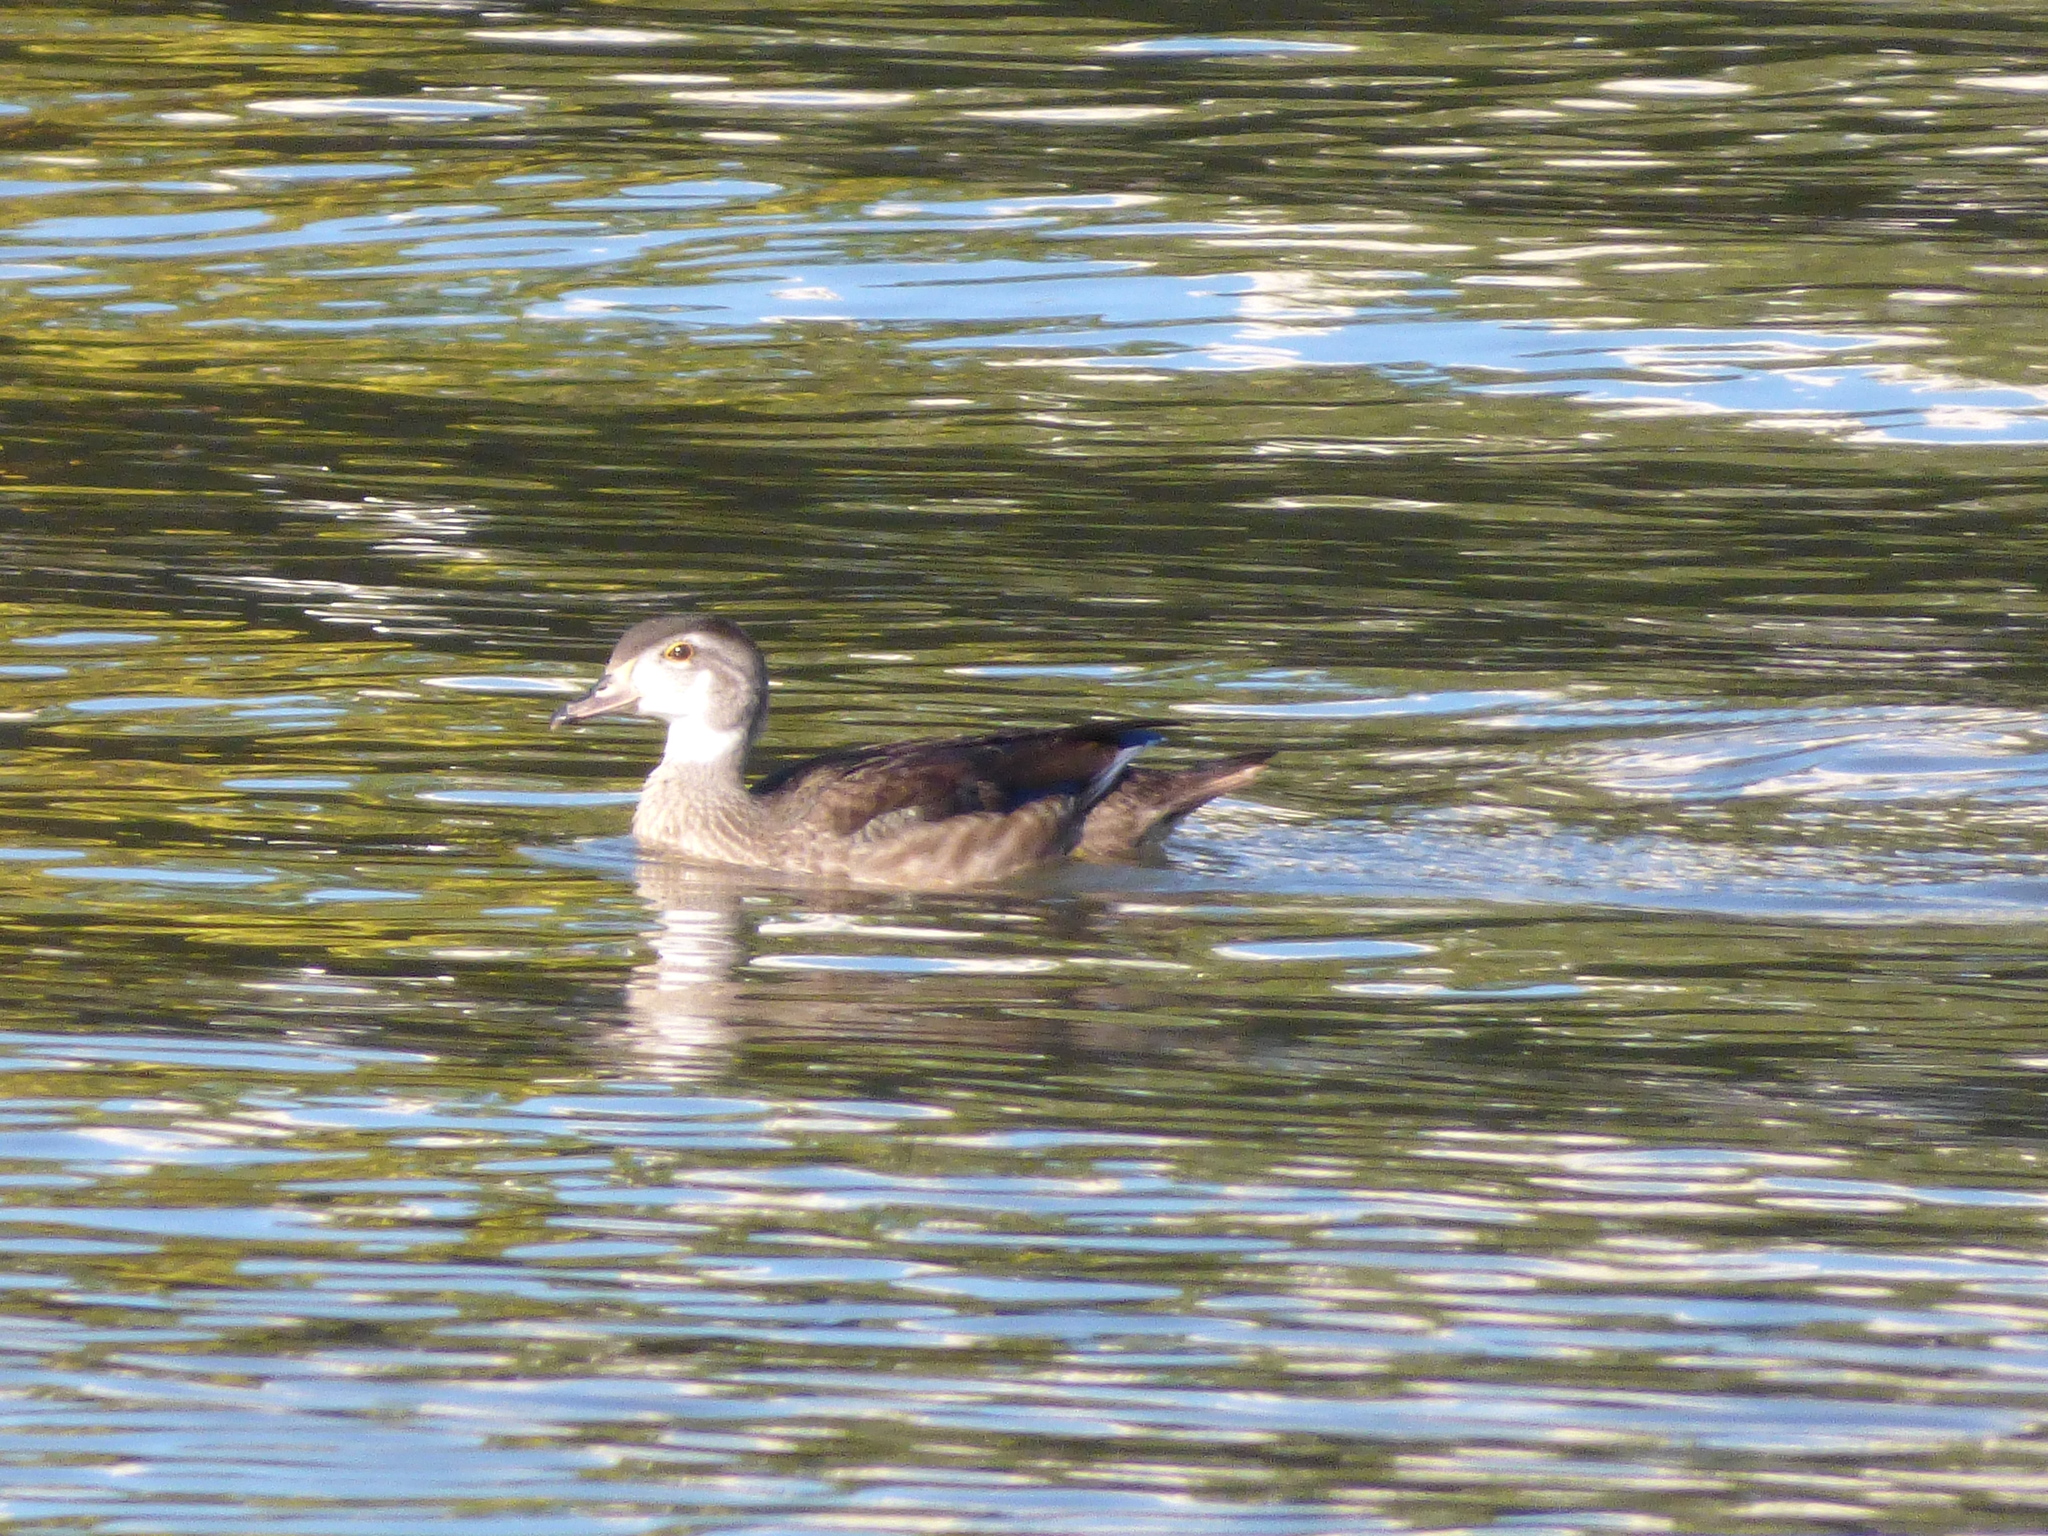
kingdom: Animalia
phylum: Chordata
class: Aves
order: Anseriformes
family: Anatidae
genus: Aix
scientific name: Aix sponsa
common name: Wood duck
